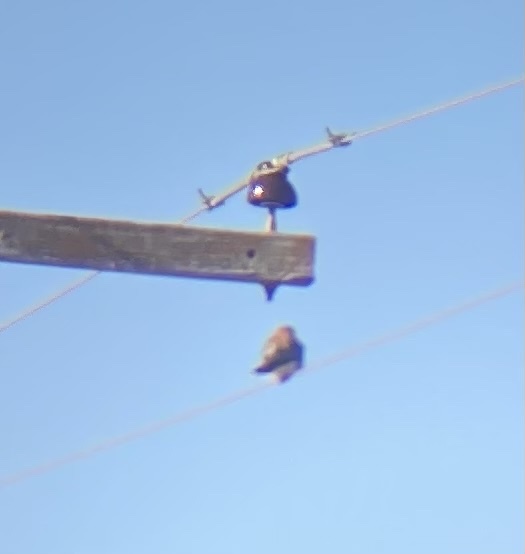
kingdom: Animalia
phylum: Chordata
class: Aves
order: Falconiformes
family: Falconidae
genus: Falco
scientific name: Falco sparverius
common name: American kestrel
